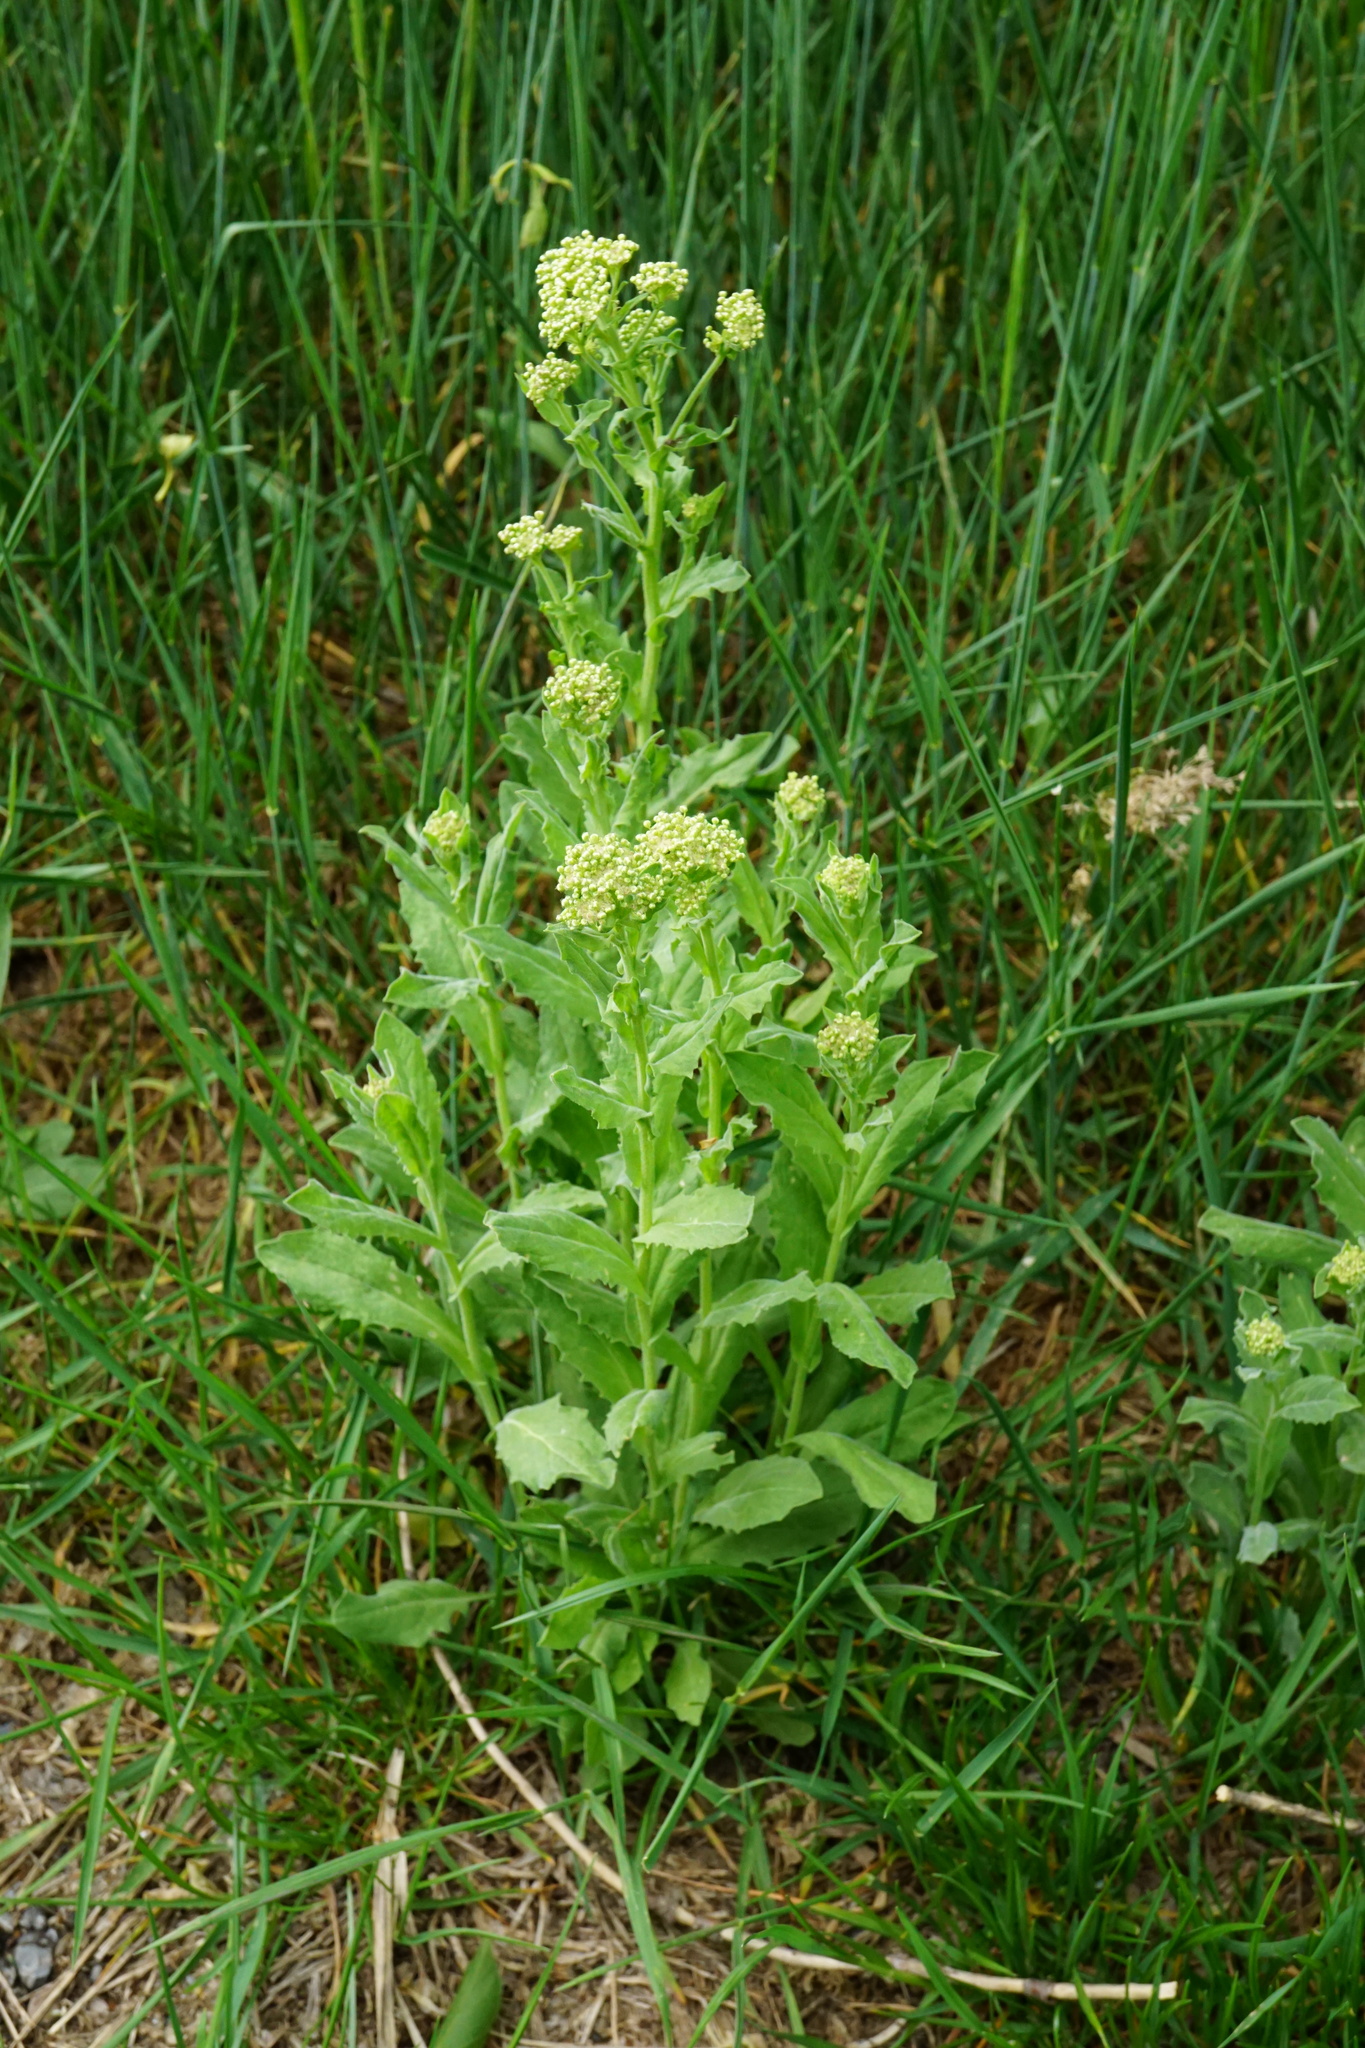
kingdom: Plantae
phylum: Tracheophyta
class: Magnoliopsida
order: Brassicales
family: Brassicaceae
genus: Lepidium
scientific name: Lepidium draba
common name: Hoary cress
